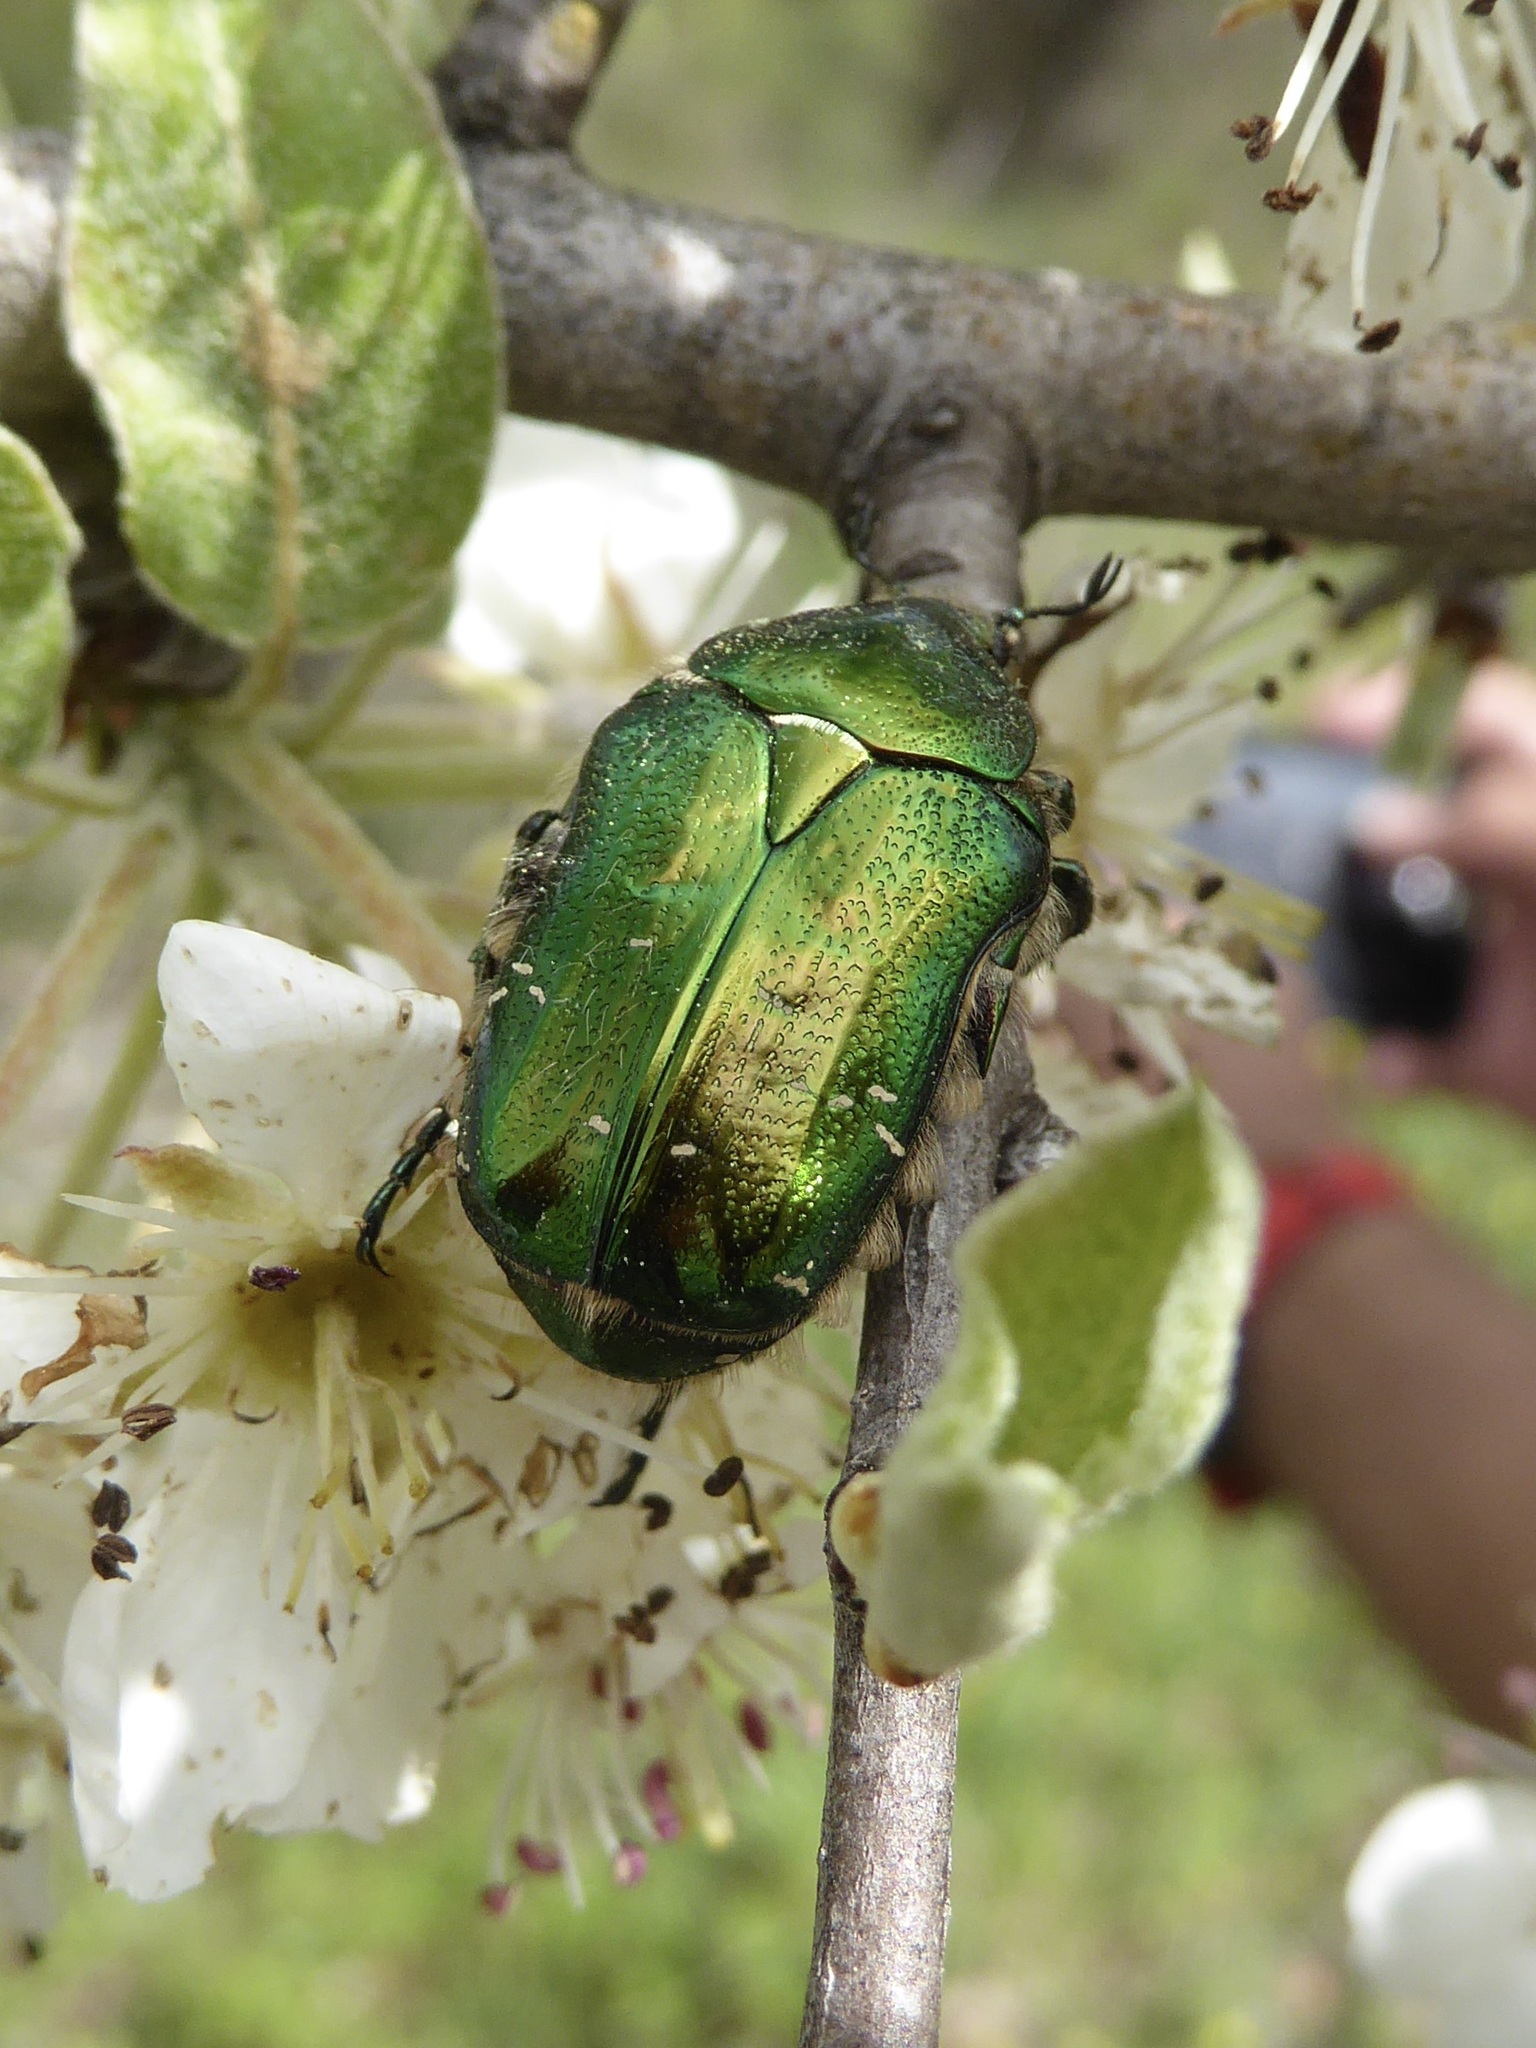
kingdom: Animalia
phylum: Arthropoda
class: Insecta
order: Coleoptera
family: Scarabaeidae
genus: Cetonia
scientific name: Cetonia aurata
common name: Rose chafer
